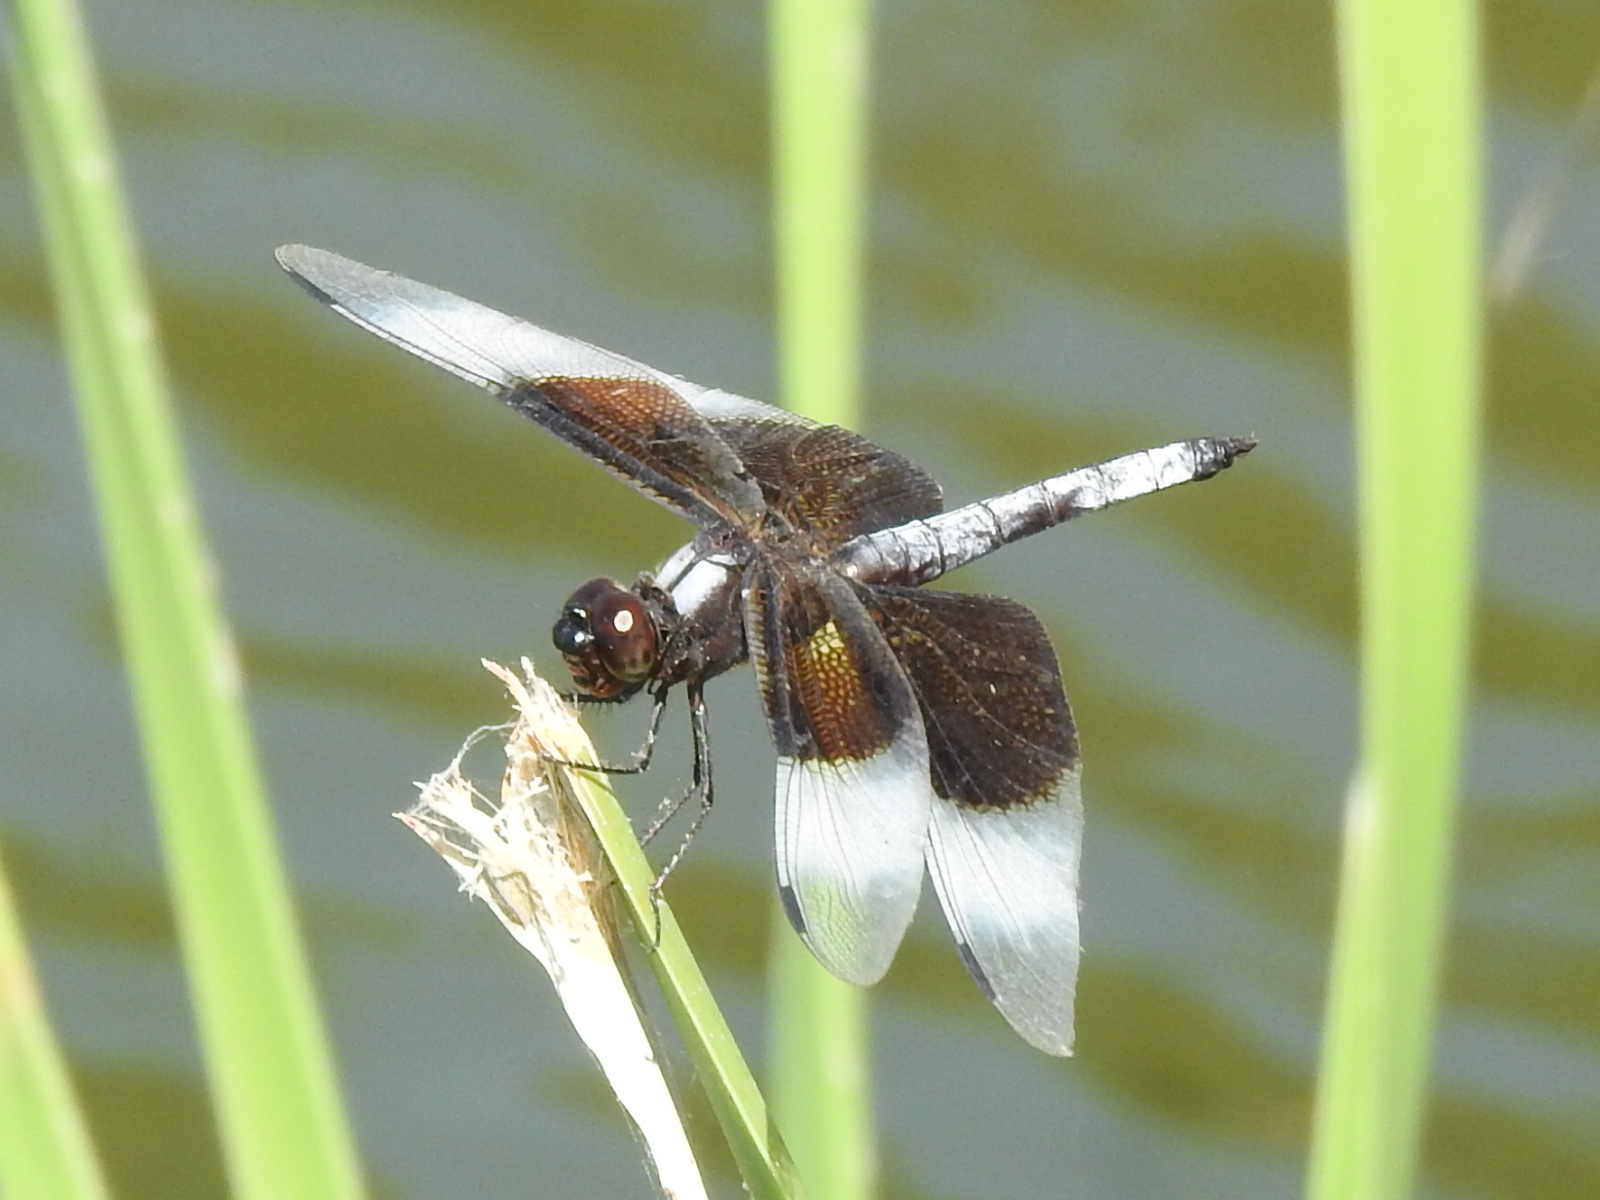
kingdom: Animalia
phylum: Arthropoda
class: Insecta
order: Odonata
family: Libellulidae
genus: Libellula
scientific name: Libellula luctuosa
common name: Widow skimmer
